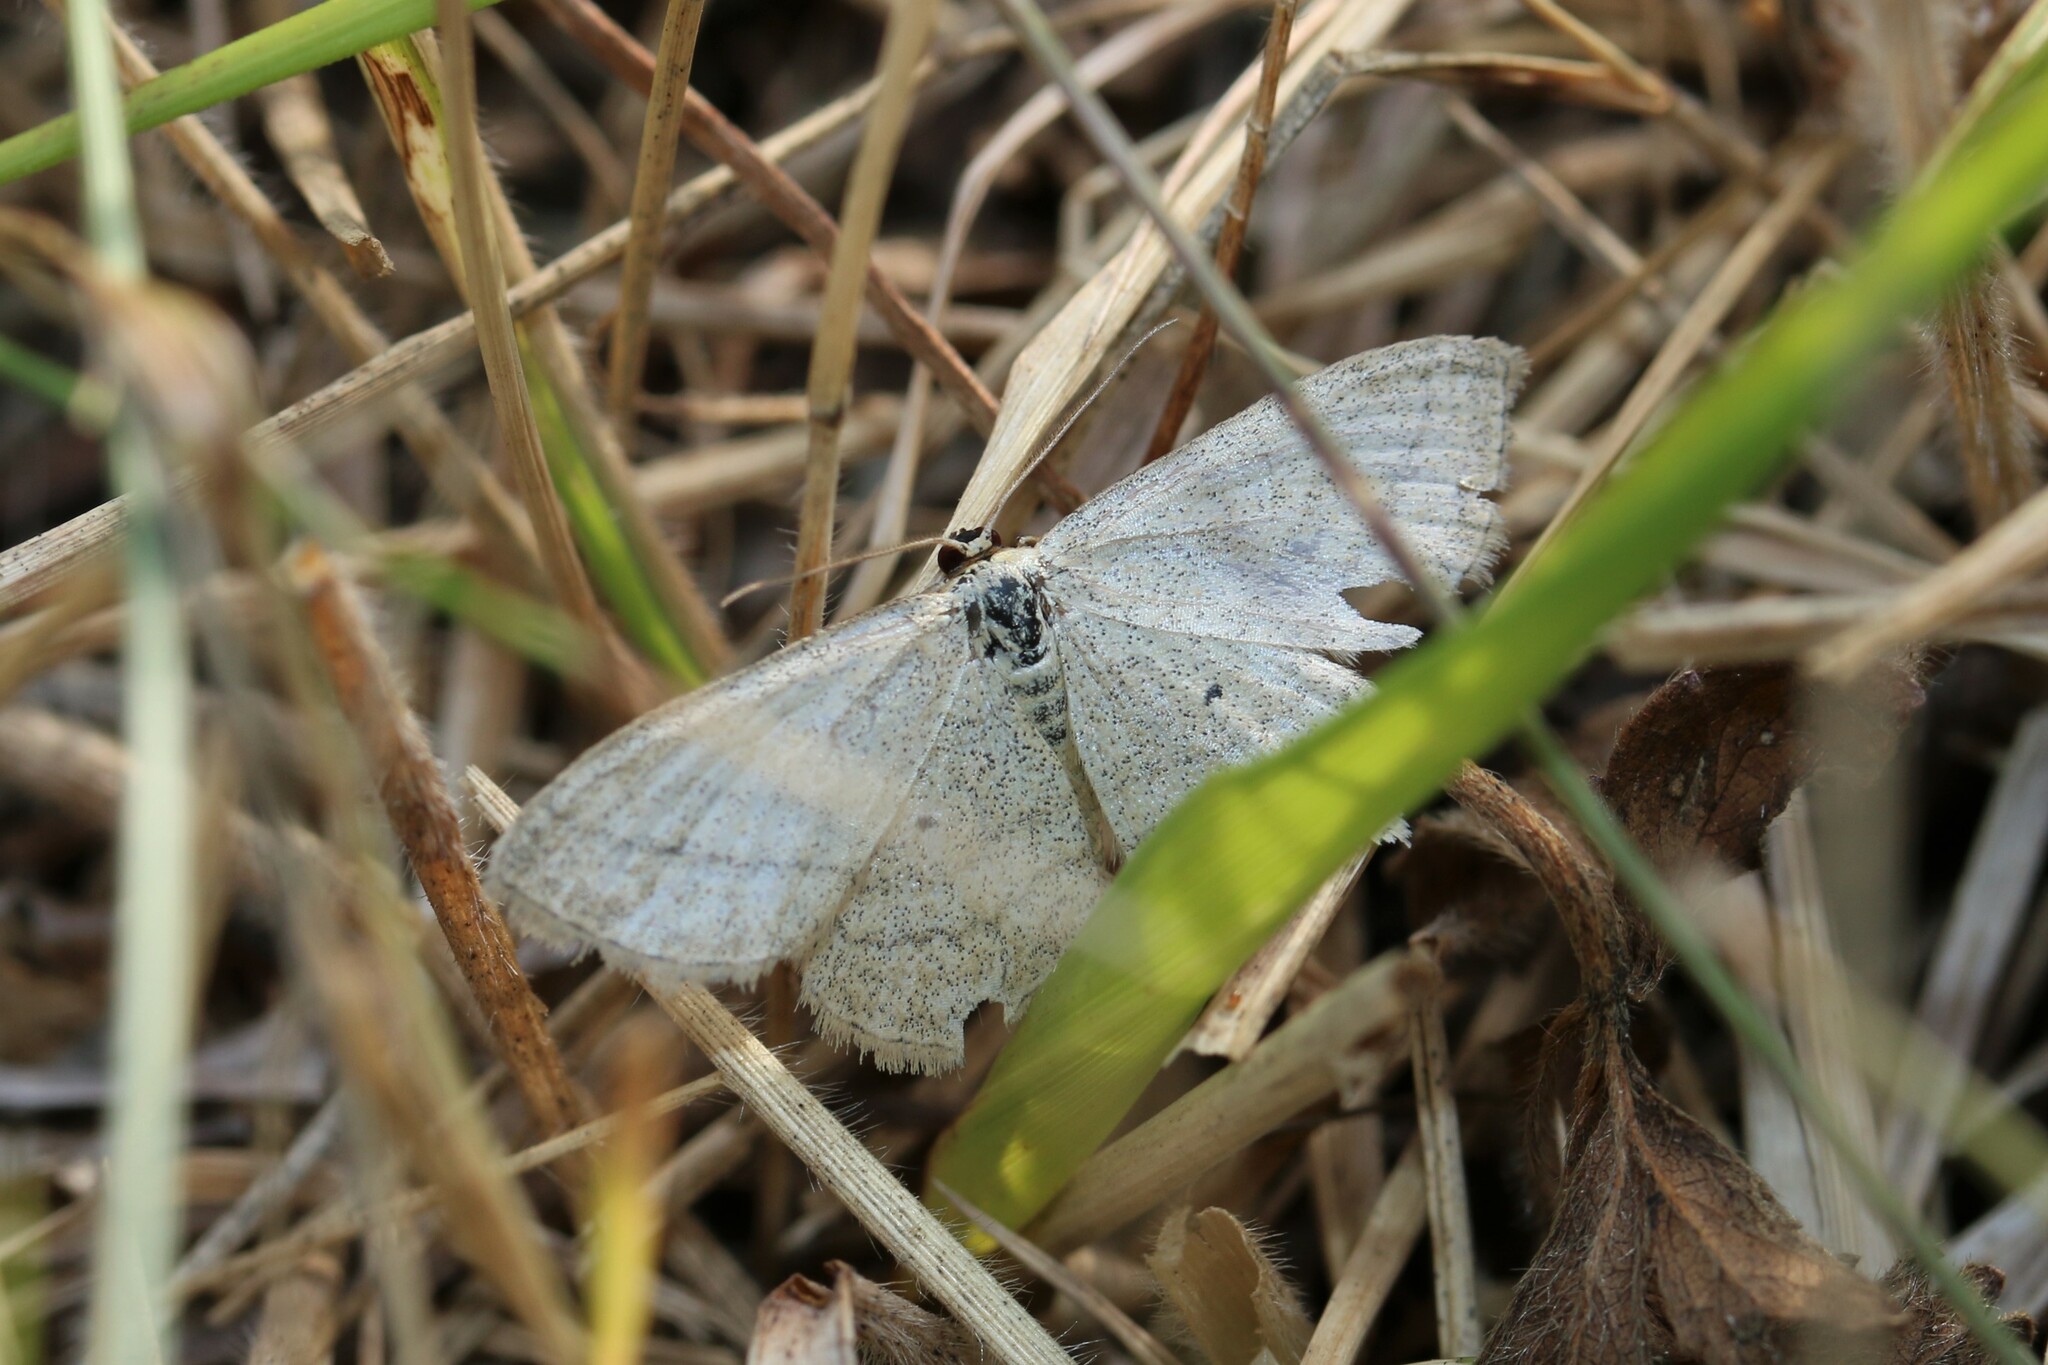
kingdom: Animalia
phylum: Arthropoda
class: Insecta
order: Lepidoptera
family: Geometridae
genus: Scopula
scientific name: Scopula virgulata
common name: Streaked wave
